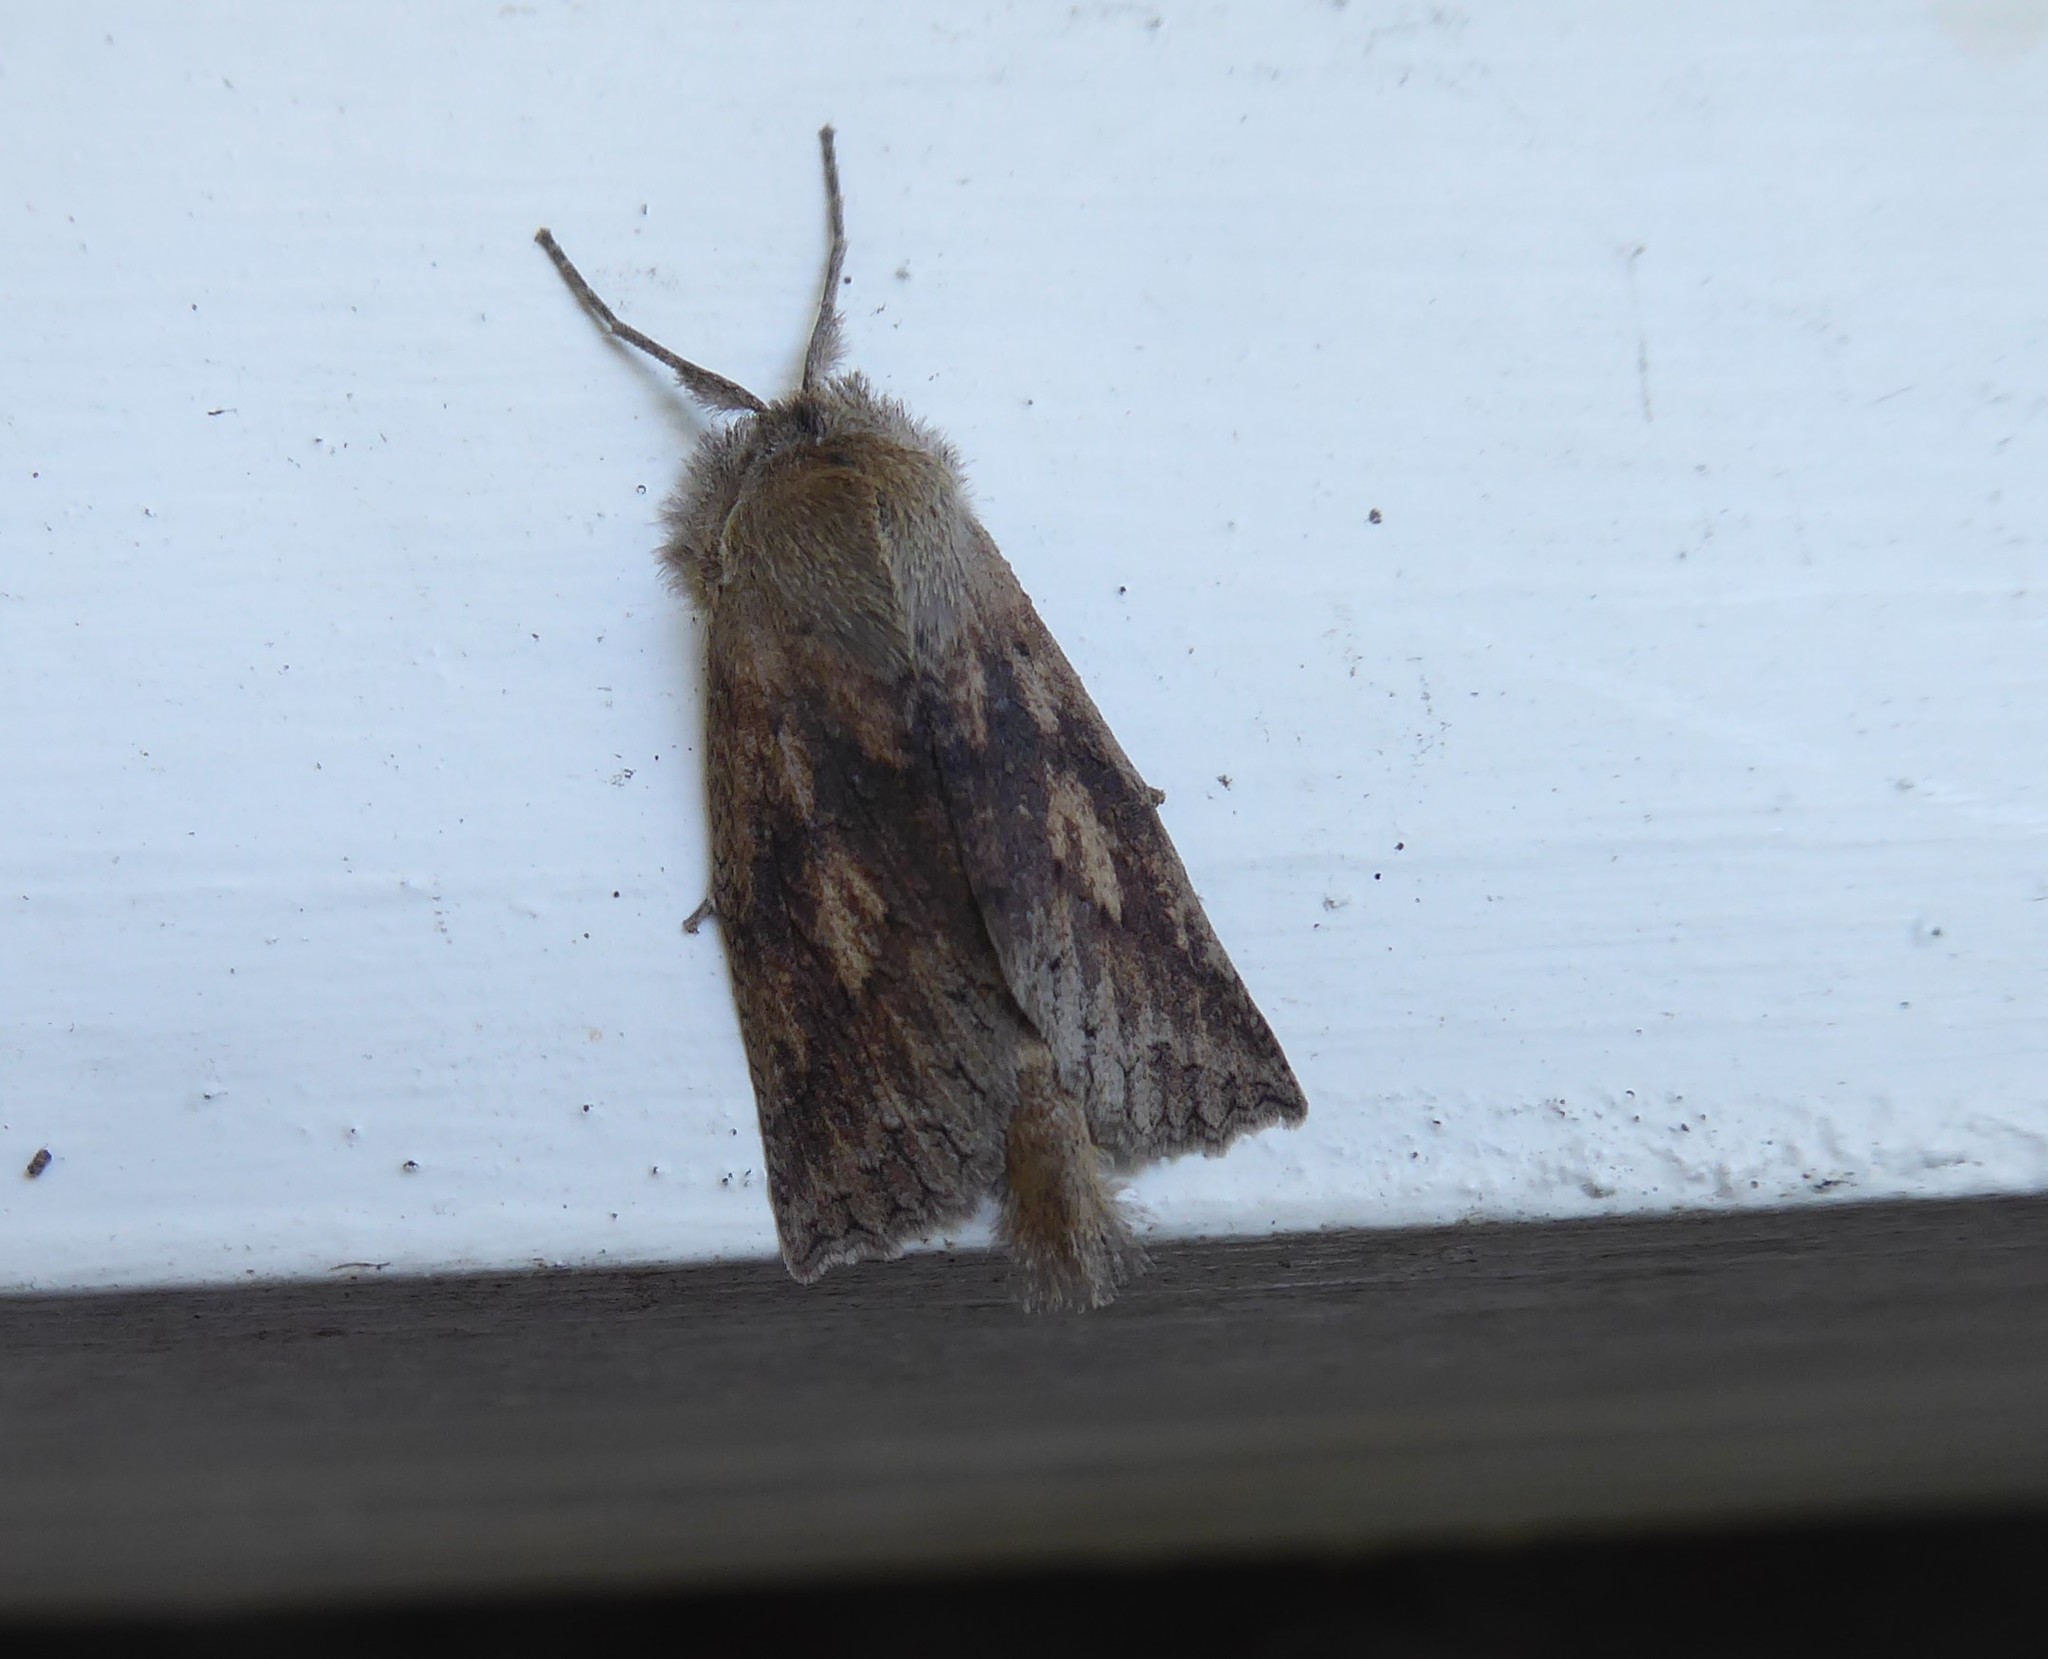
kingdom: Animalia
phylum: Arthropoda
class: Insecta
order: Lepidoptera
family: Geometridae
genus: Declana
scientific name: Declana leptomera
